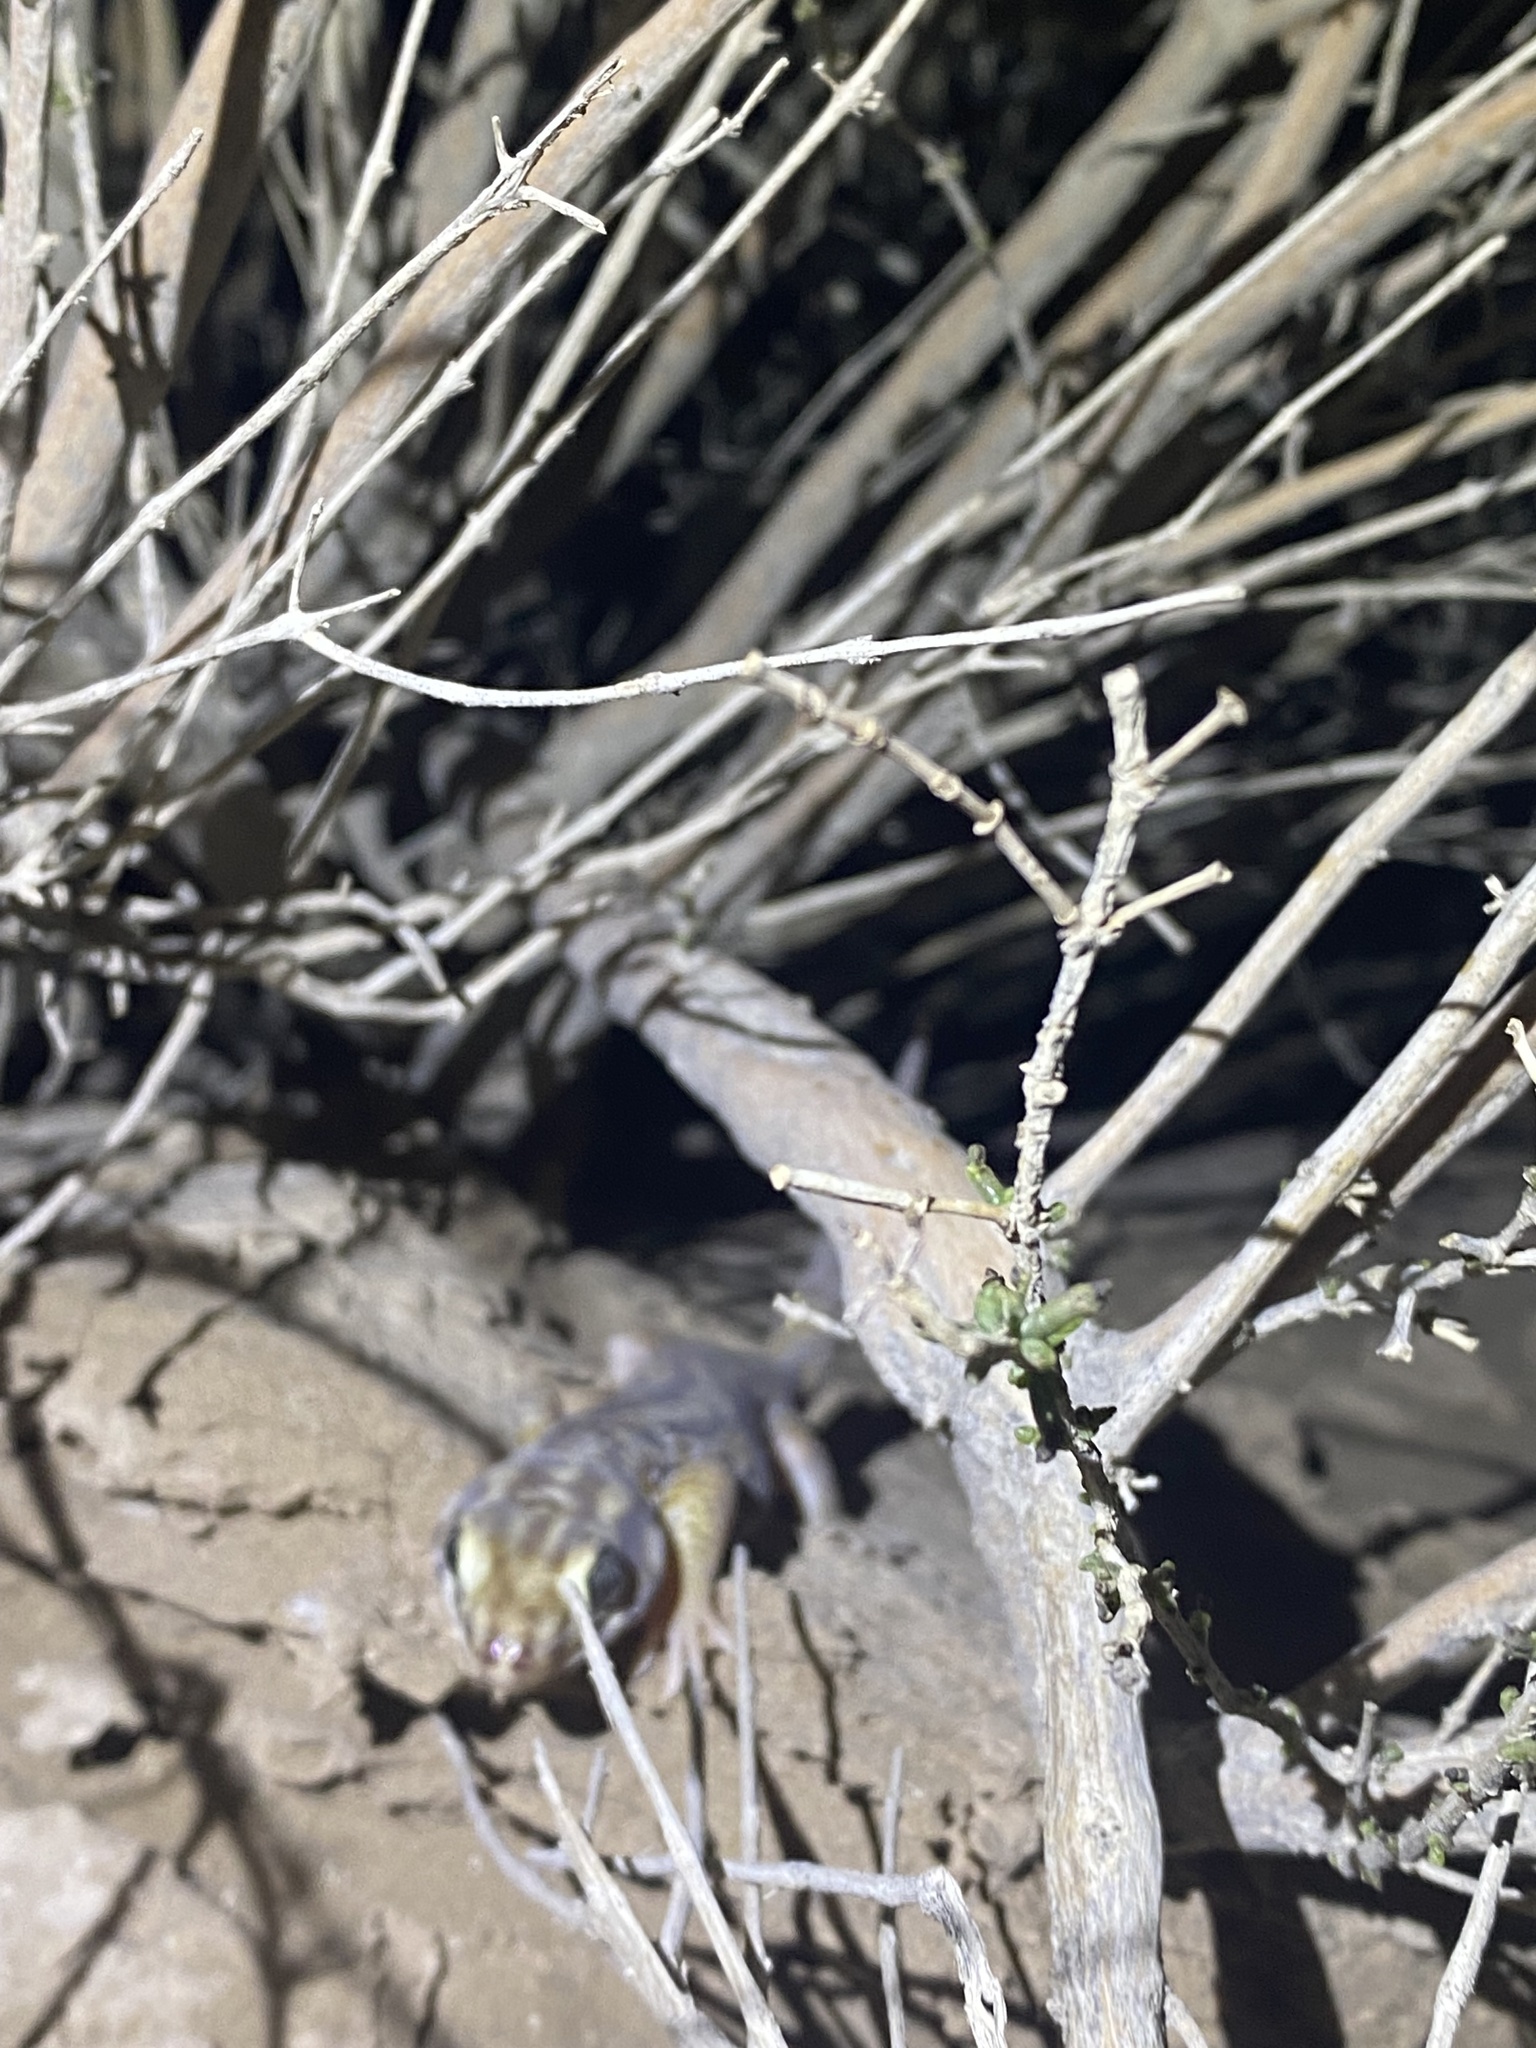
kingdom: Animalia
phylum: Chordata
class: Squamata
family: Sphaerodactylidae
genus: Teratoscincus
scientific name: Teratoscincus keyserlingii
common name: Frog-eyed gecko
